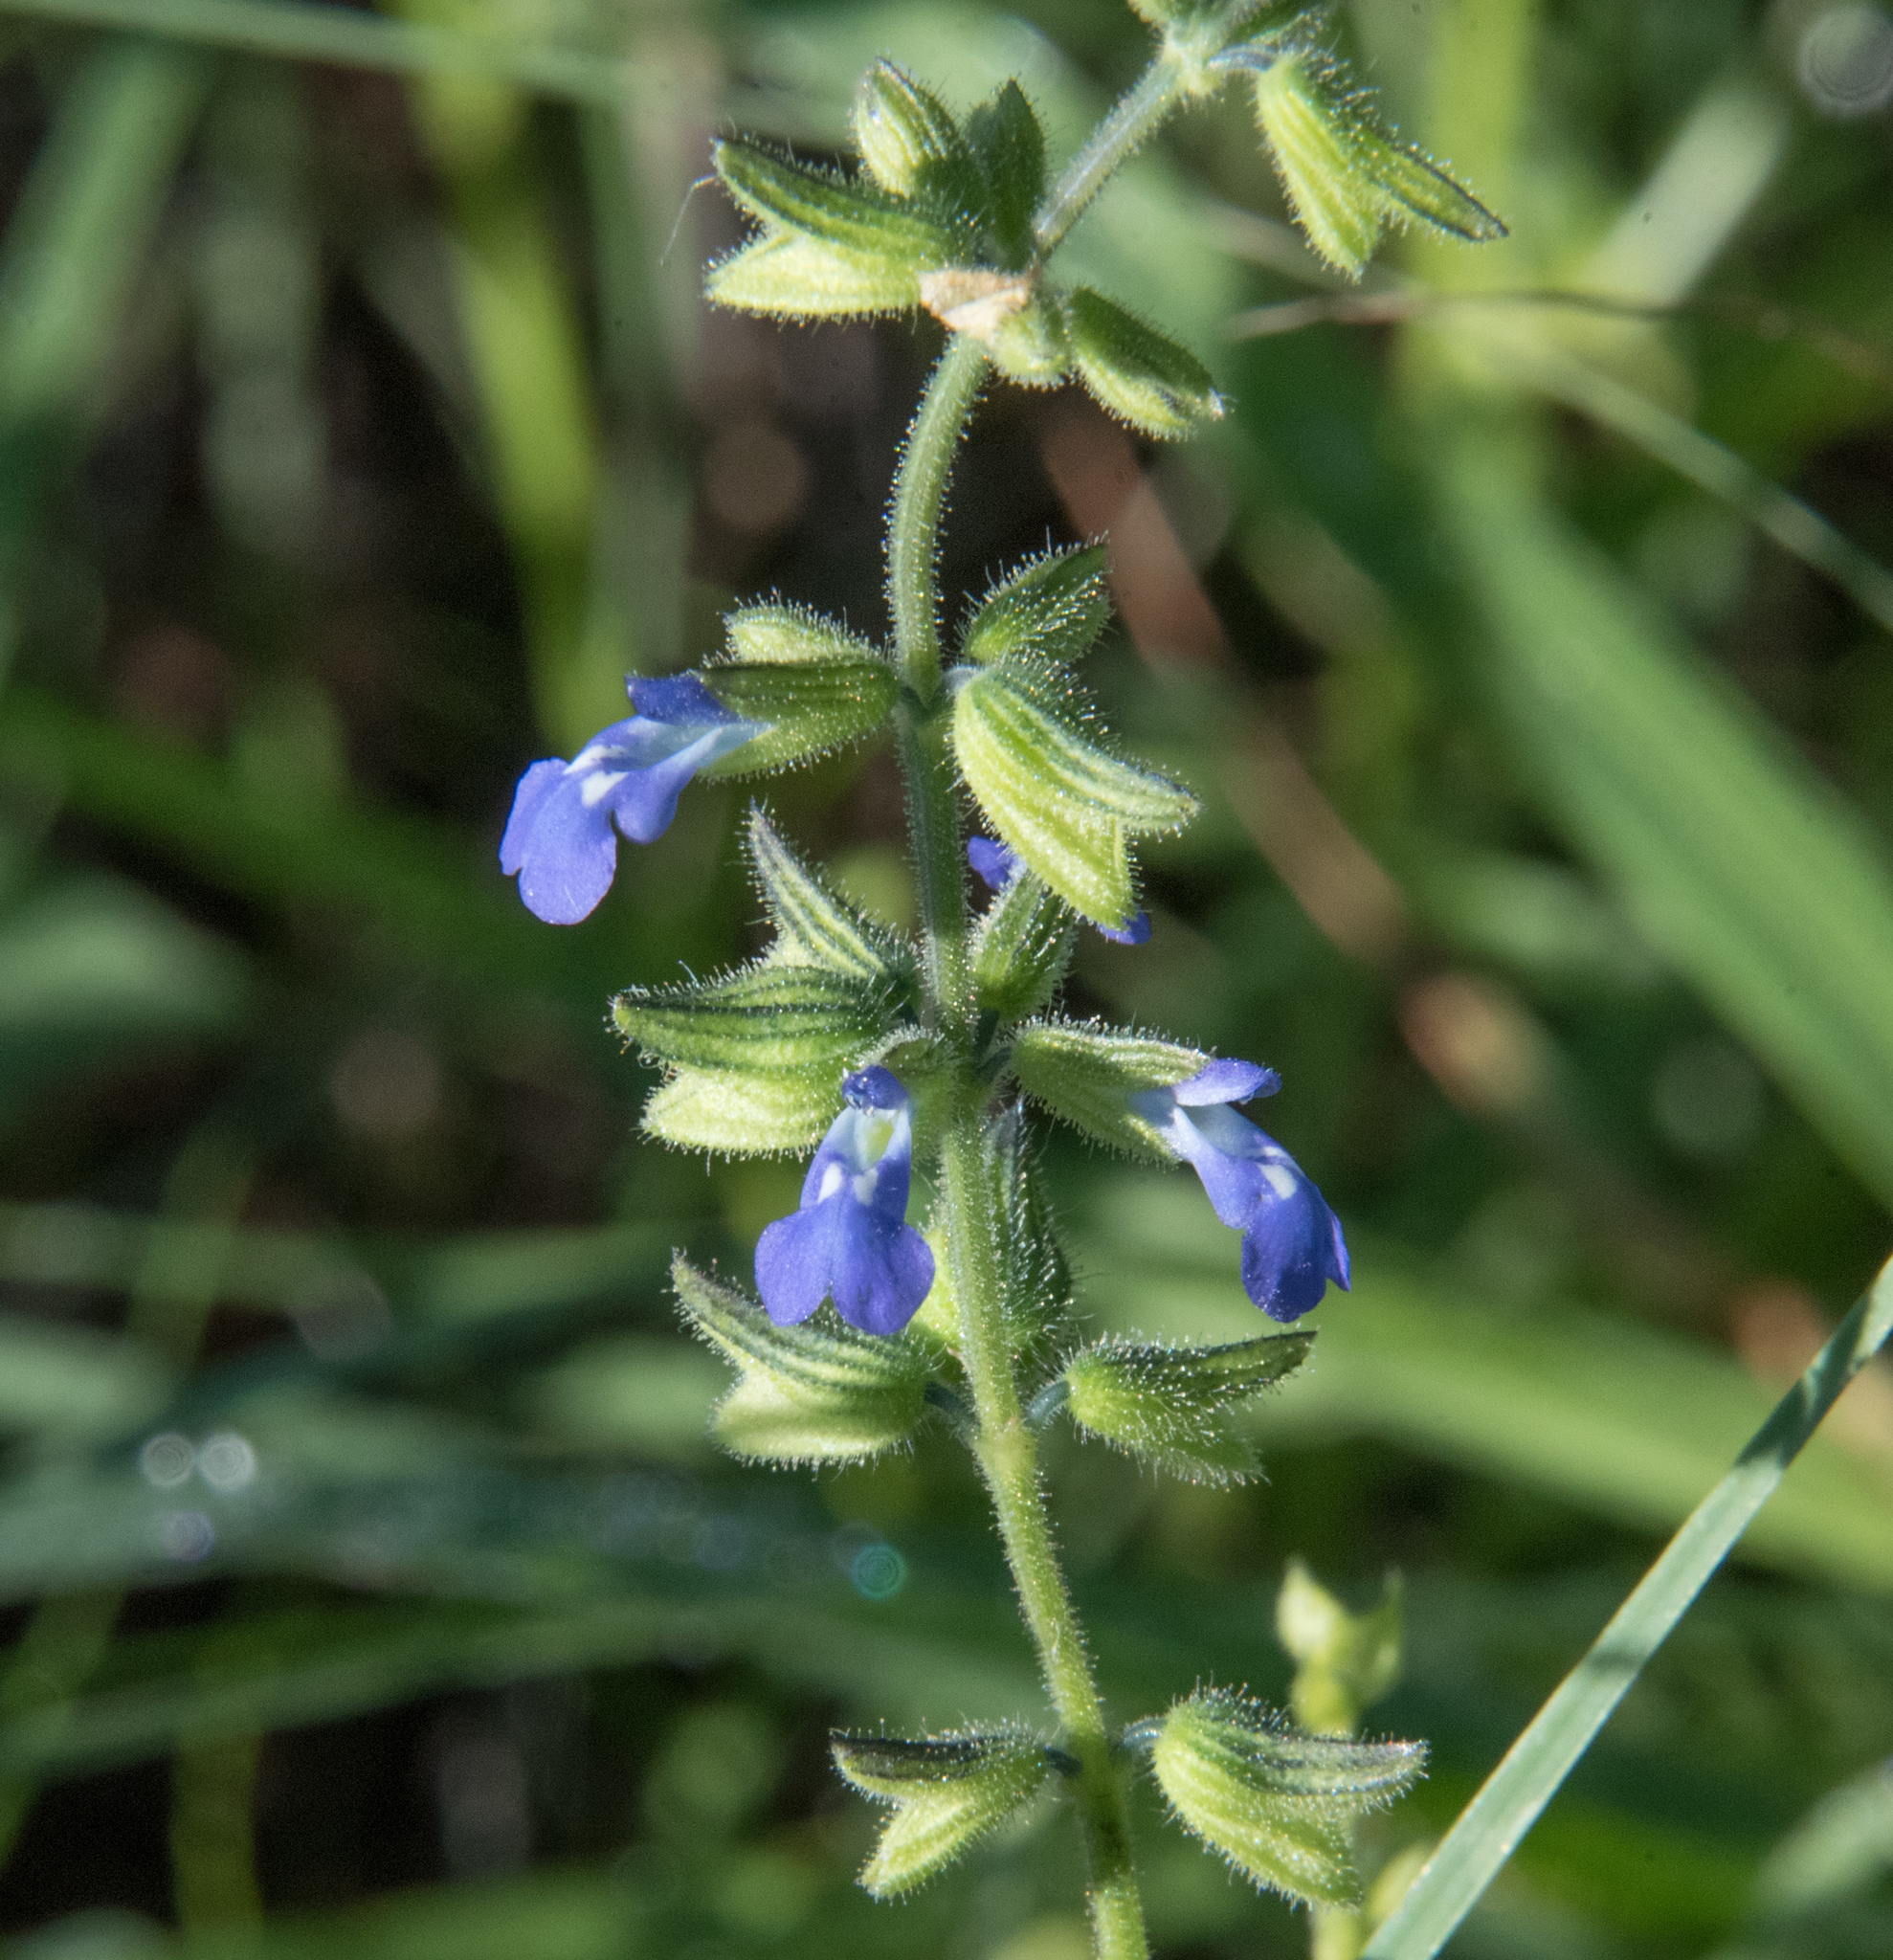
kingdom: Plantae
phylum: Tracheophyta
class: Magnoliopsida
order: Lamiales
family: Lamiaceae
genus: Salvia
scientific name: Salvia subincisa
